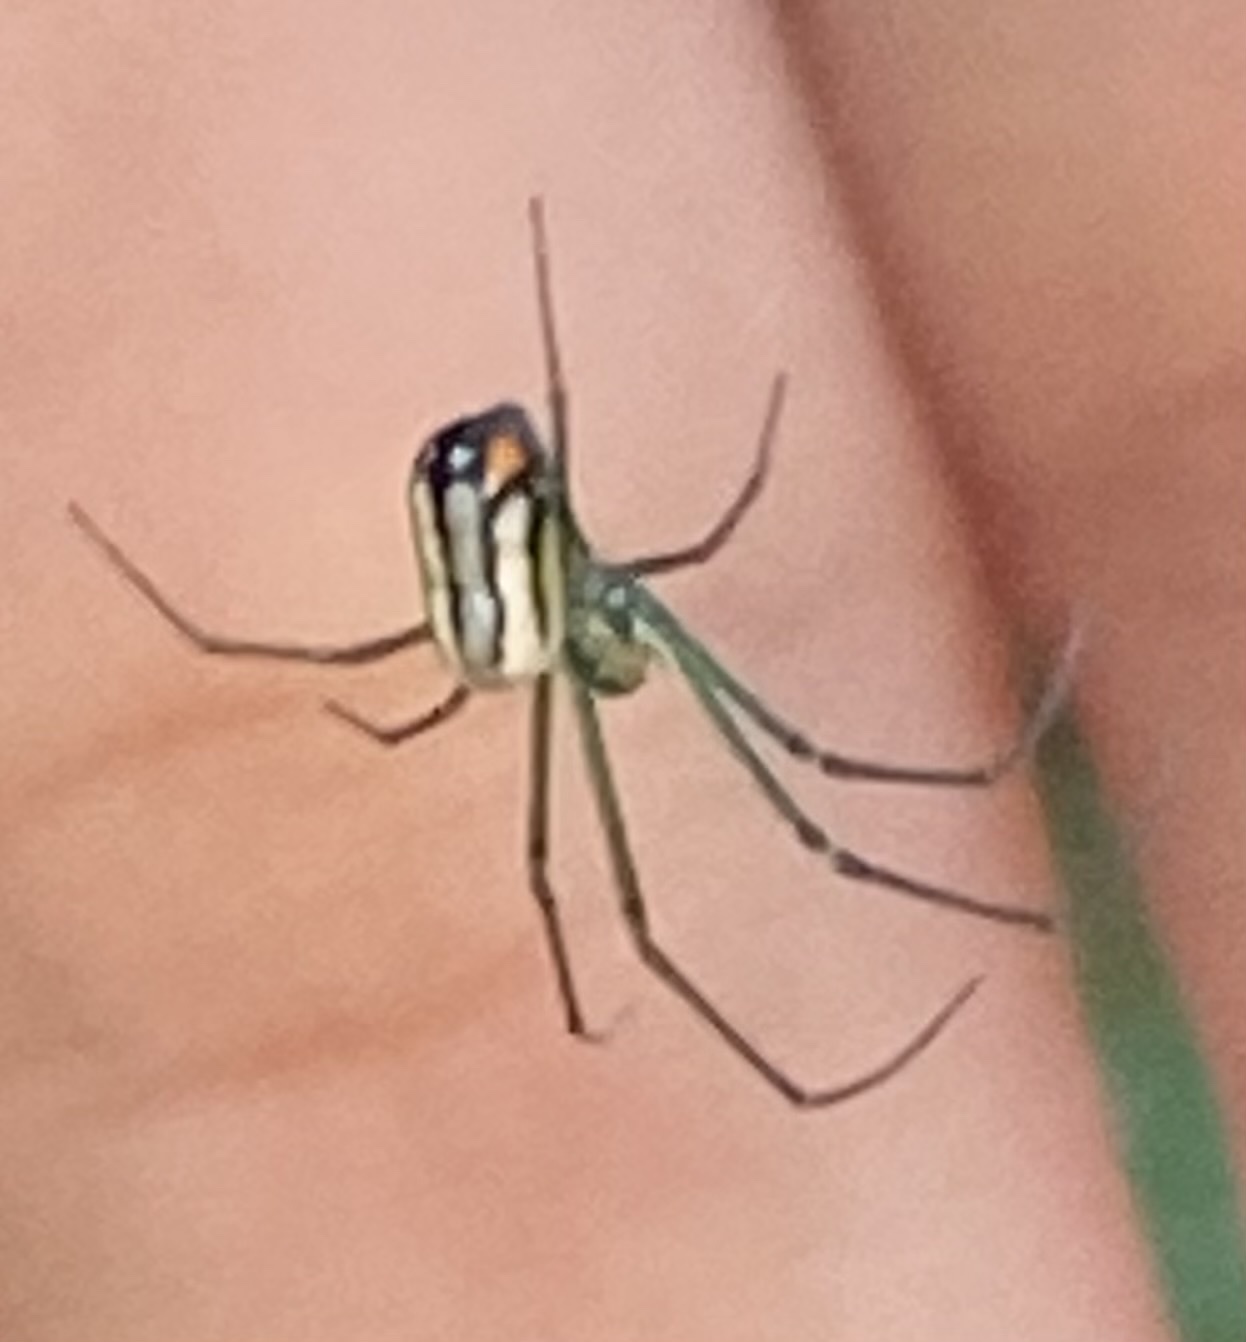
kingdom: Animalia
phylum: Arthropoda
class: Arachnida
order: Araneae
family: Tetragnathidae
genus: Leucauge
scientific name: Leucauge argyrobapta
